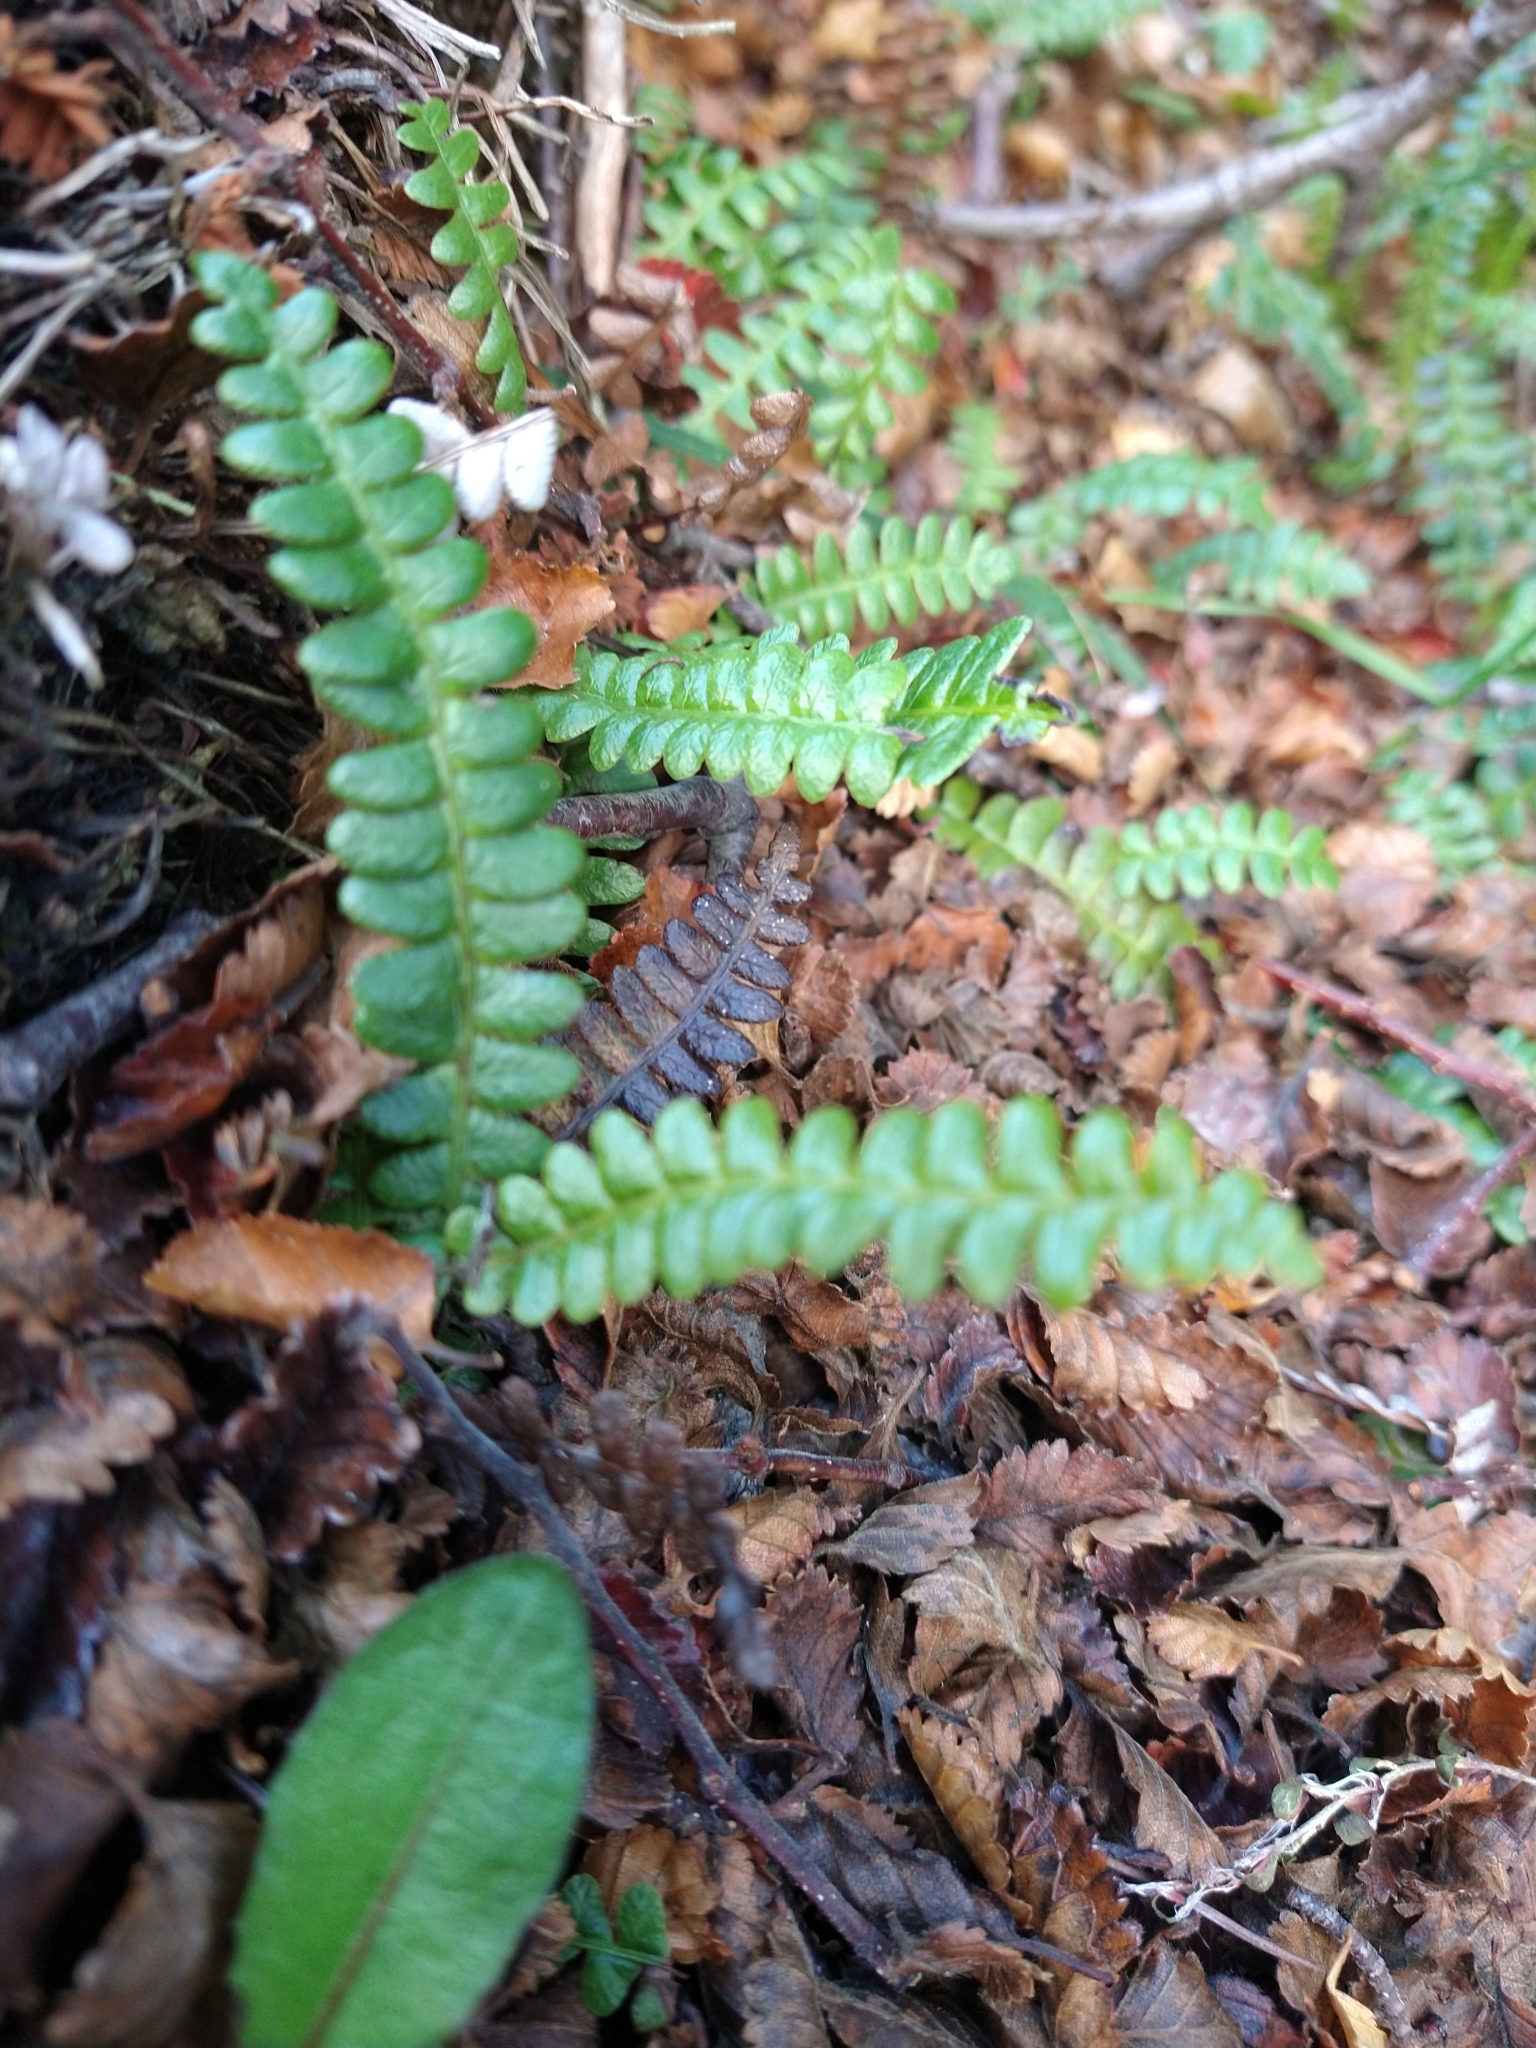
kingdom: Plantae
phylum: Tracheophyta
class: Polypodiopsida
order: Polypodiales
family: Blechnaceae
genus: Austroblechnum
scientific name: Austroblechnum penna-marina
